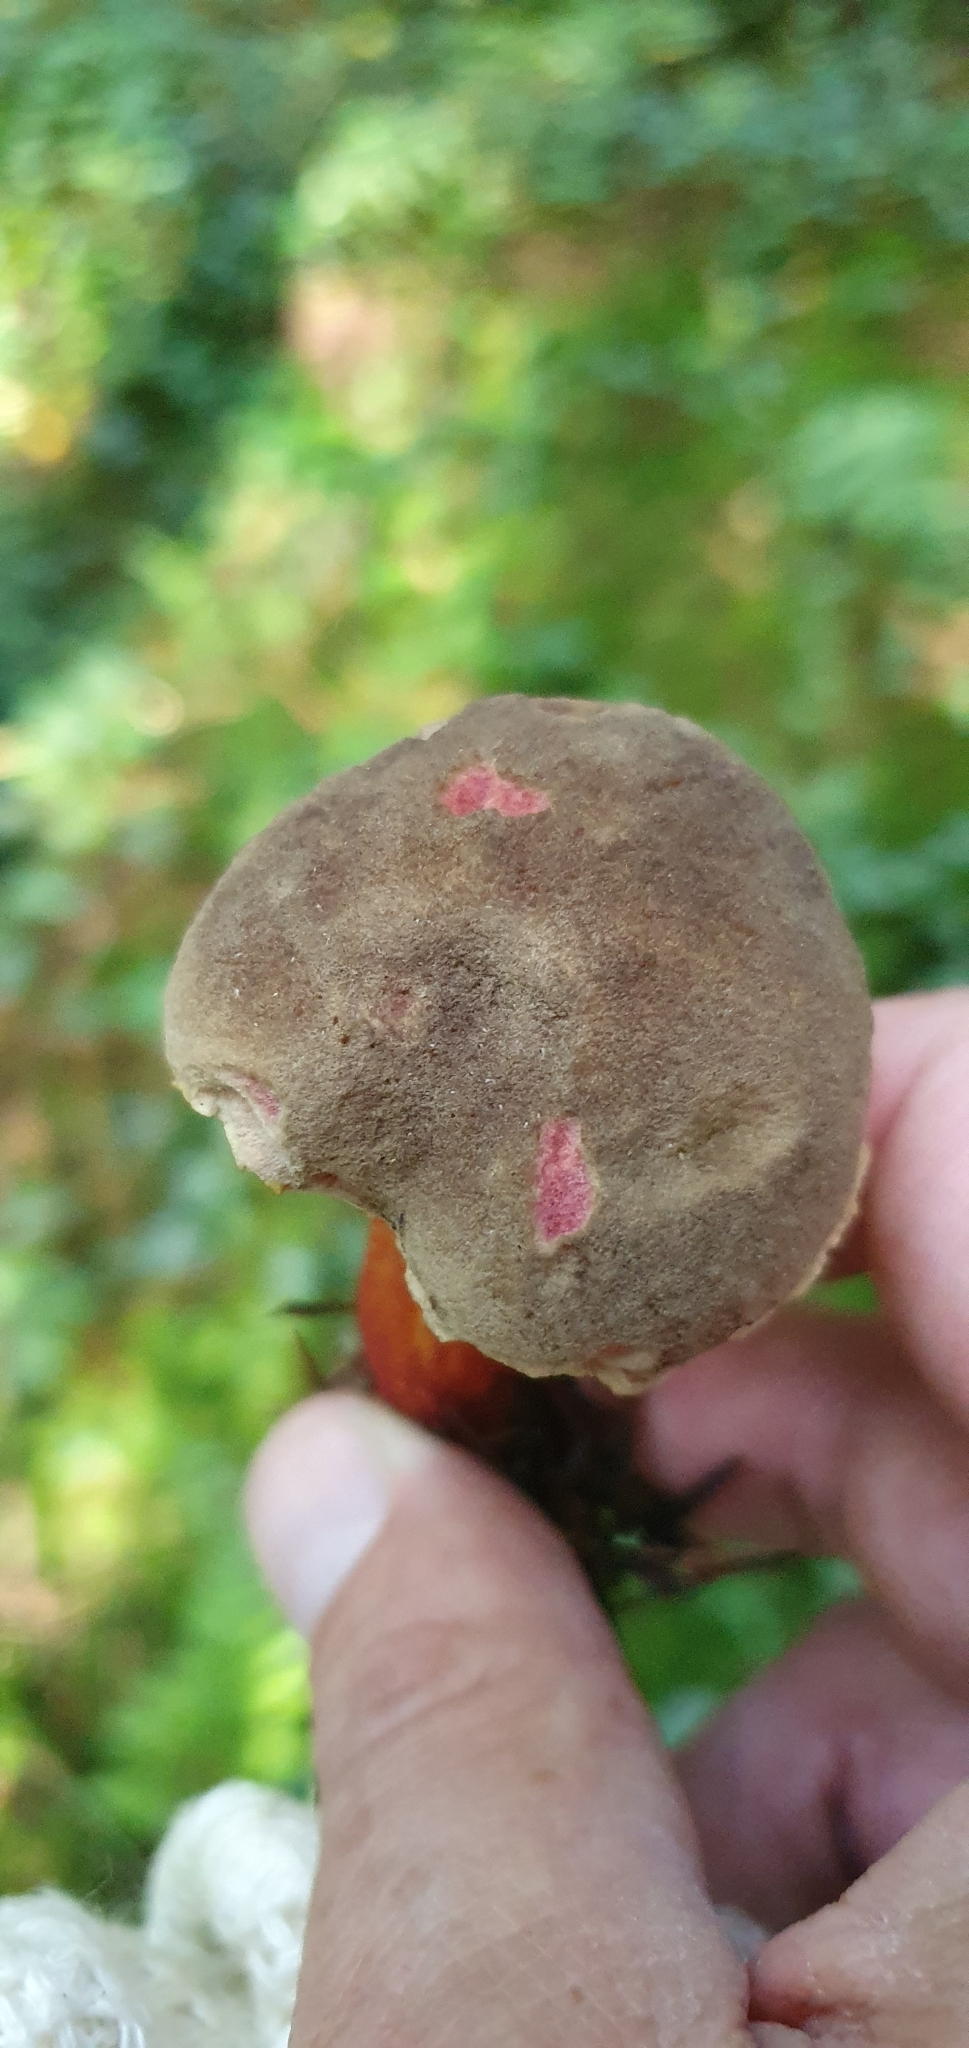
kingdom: Fungi
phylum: Basidiomycota
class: Agaricomycetes
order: Boletales
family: Boletaceae
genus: Xerocomellus
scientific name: Xerocomellus chrysenteron
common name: Red-cracking bolete
